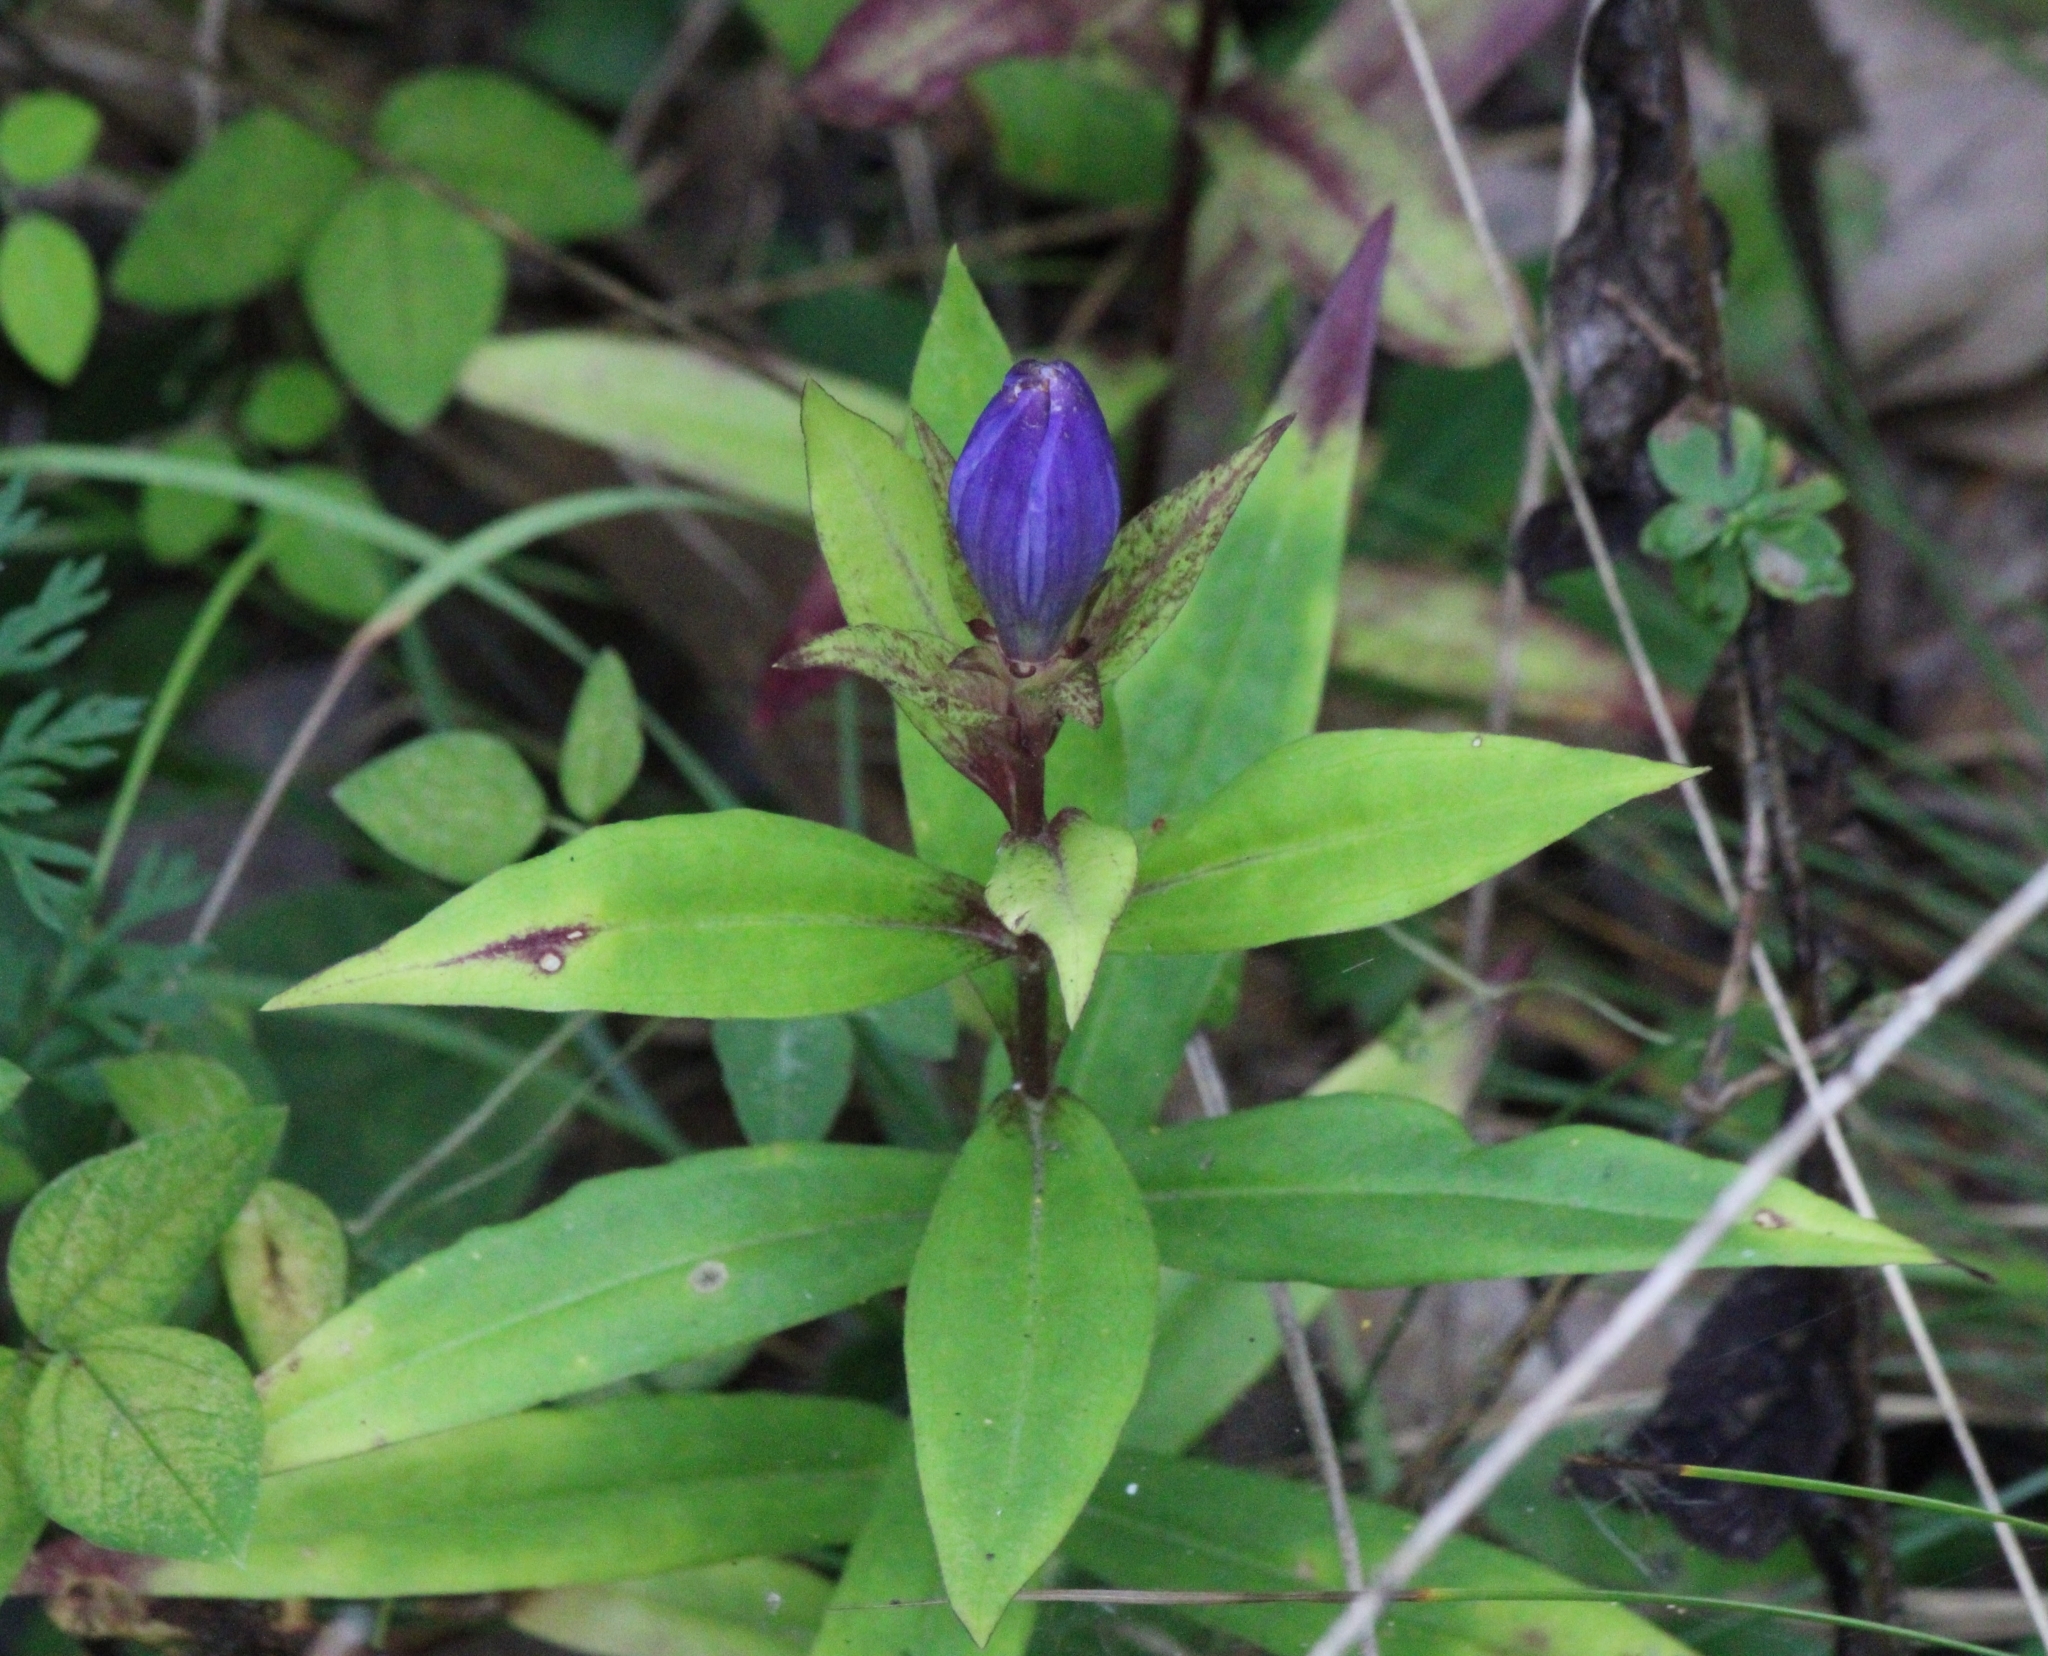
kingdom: Plantae
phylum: Tracheophyta
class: Magnoliopsida
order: Gentianales
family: Gentianaceae
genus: Gentiana
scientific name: Gentiana clausa
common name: Blind gentian
